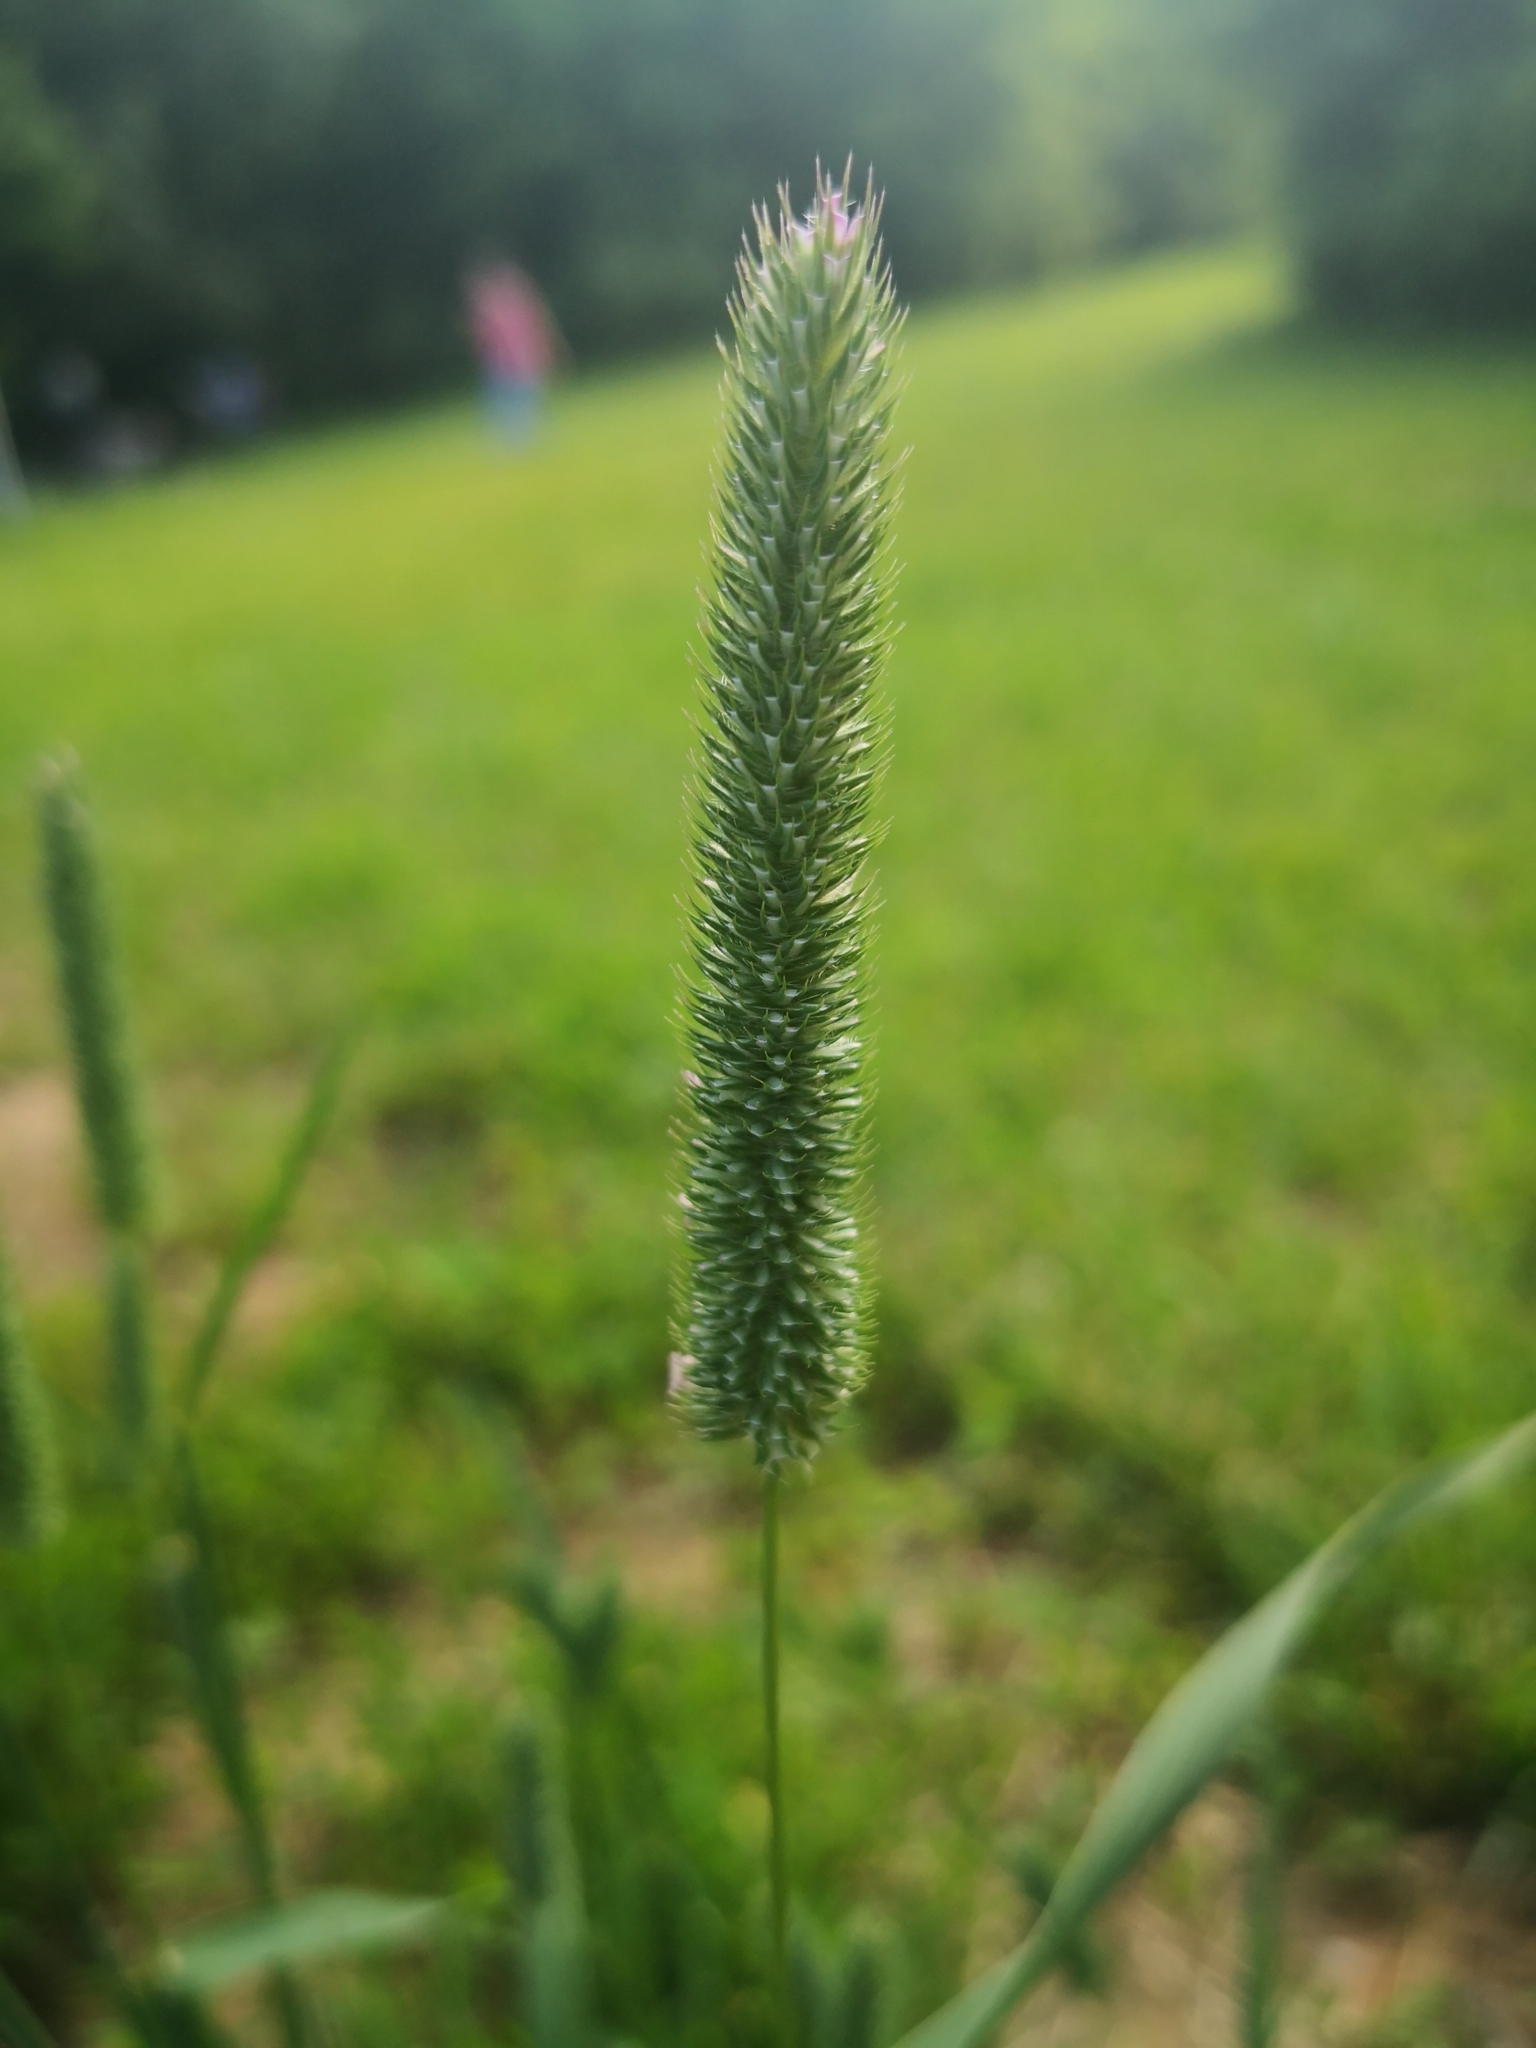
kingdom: Plantae
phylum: Tracheophyta
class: Liliopsida
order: Poales
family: Poaceae
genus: Phleum
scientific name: Phleum pratense
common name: Timothy grass
